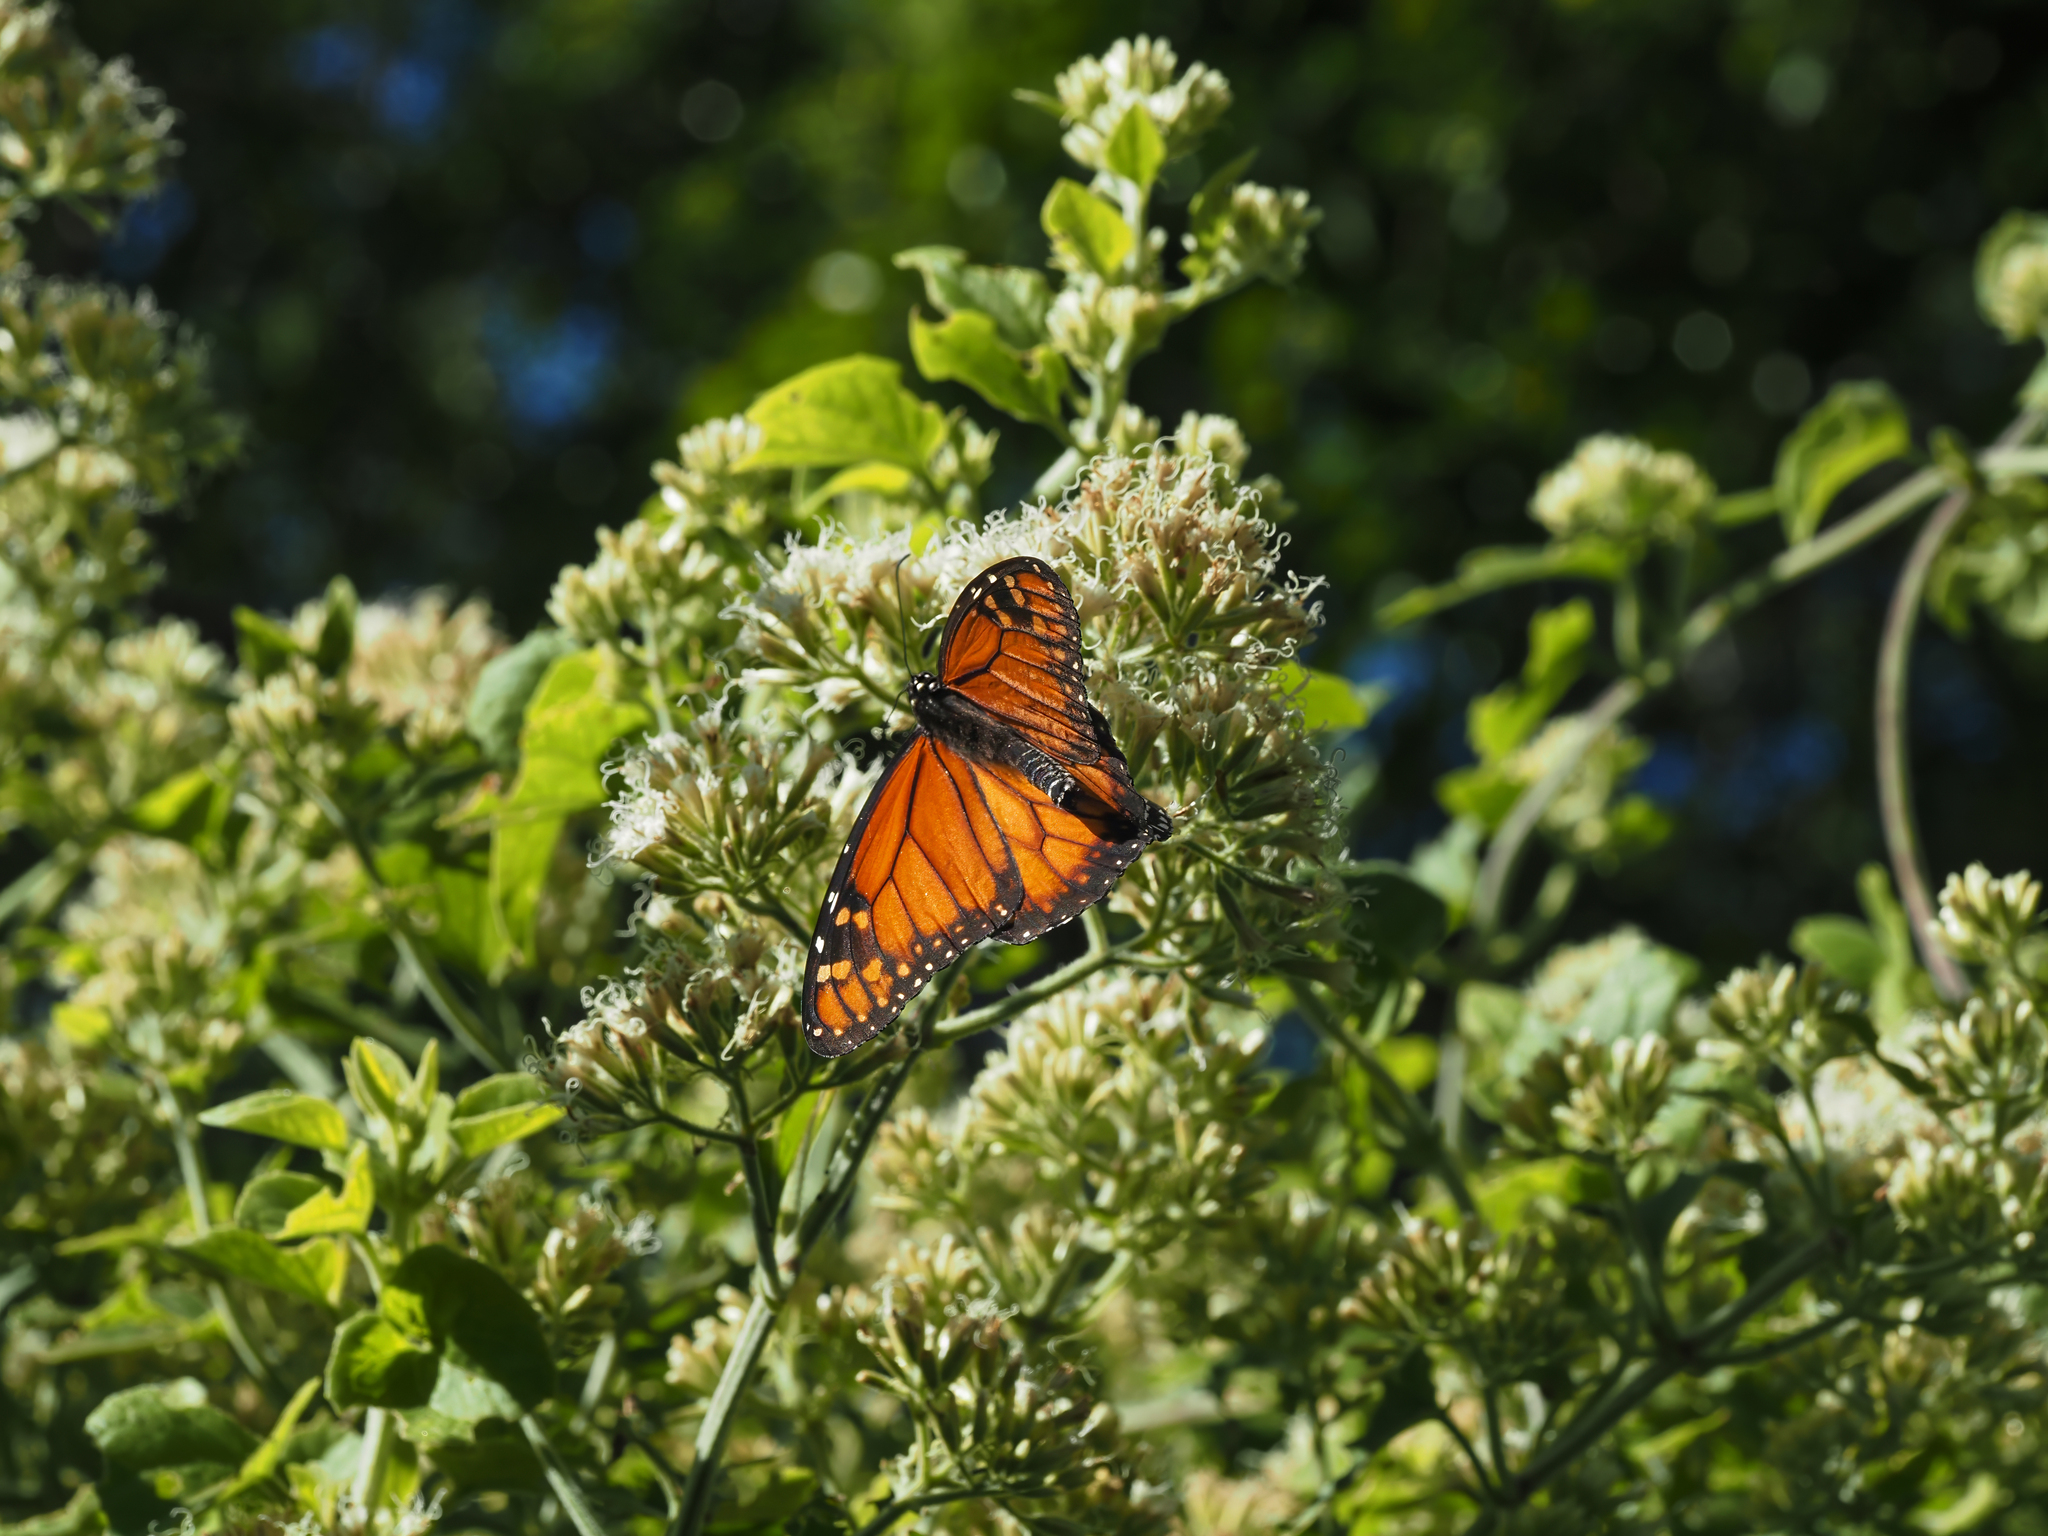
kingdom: Animalia
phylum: Arthropoda
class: Insecta
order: Lepidoptera
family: Nymphalidae
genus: Danaus
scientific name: Danaus erippus
